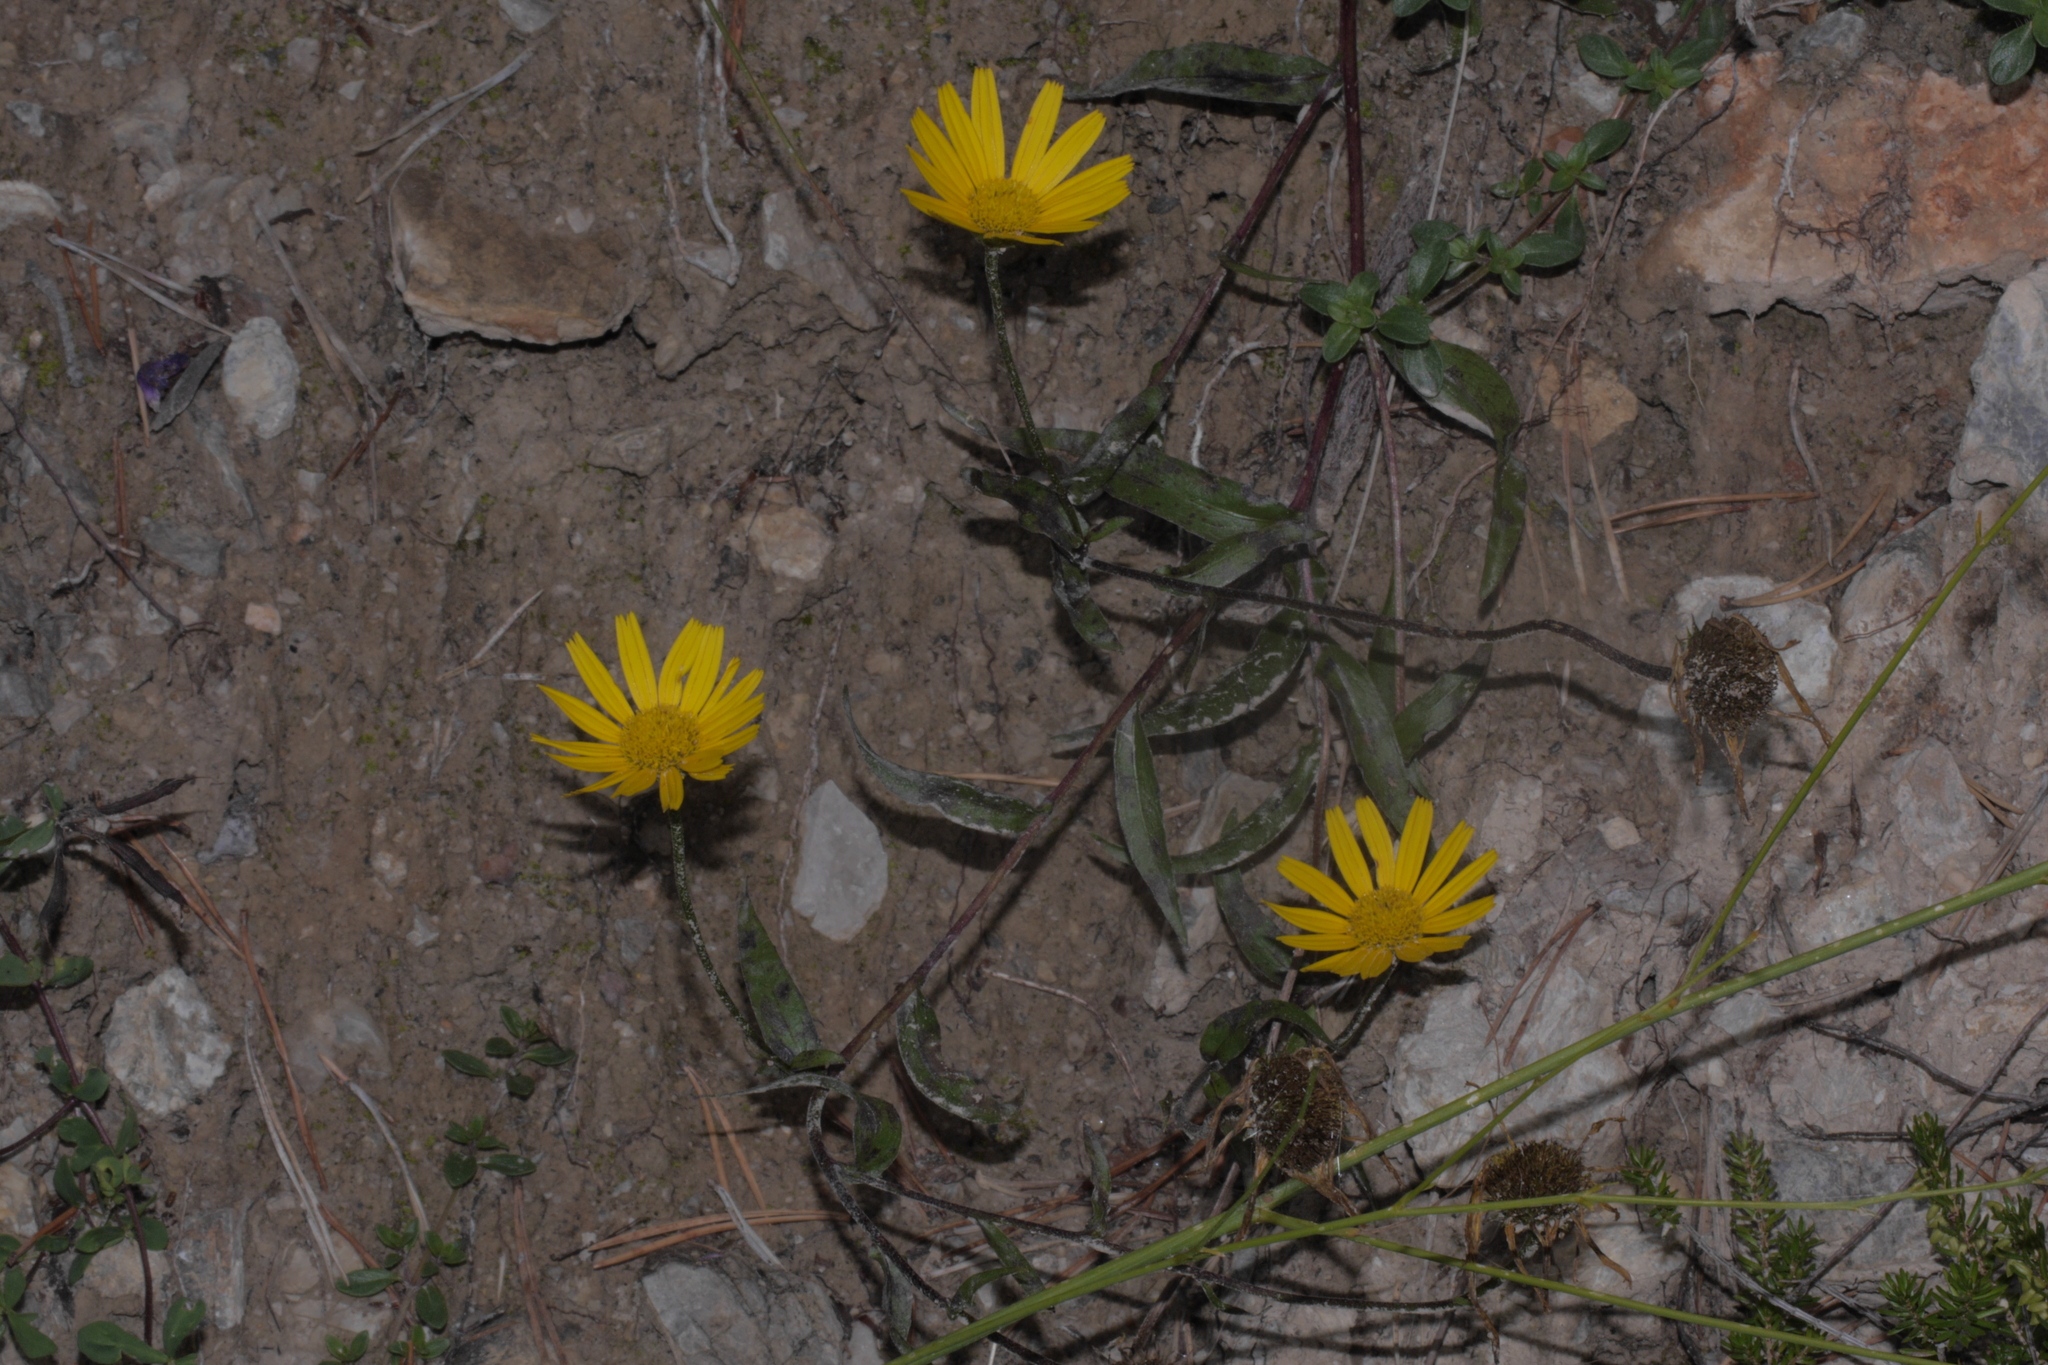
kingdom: Plantae
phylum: Tracheophyta
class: Magnoliopsida
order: Asterales
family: Asteraceae
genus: Buphthalmum
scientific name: Buphthalmum salicifolium
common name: Willow-leaved yellow-oxeye
